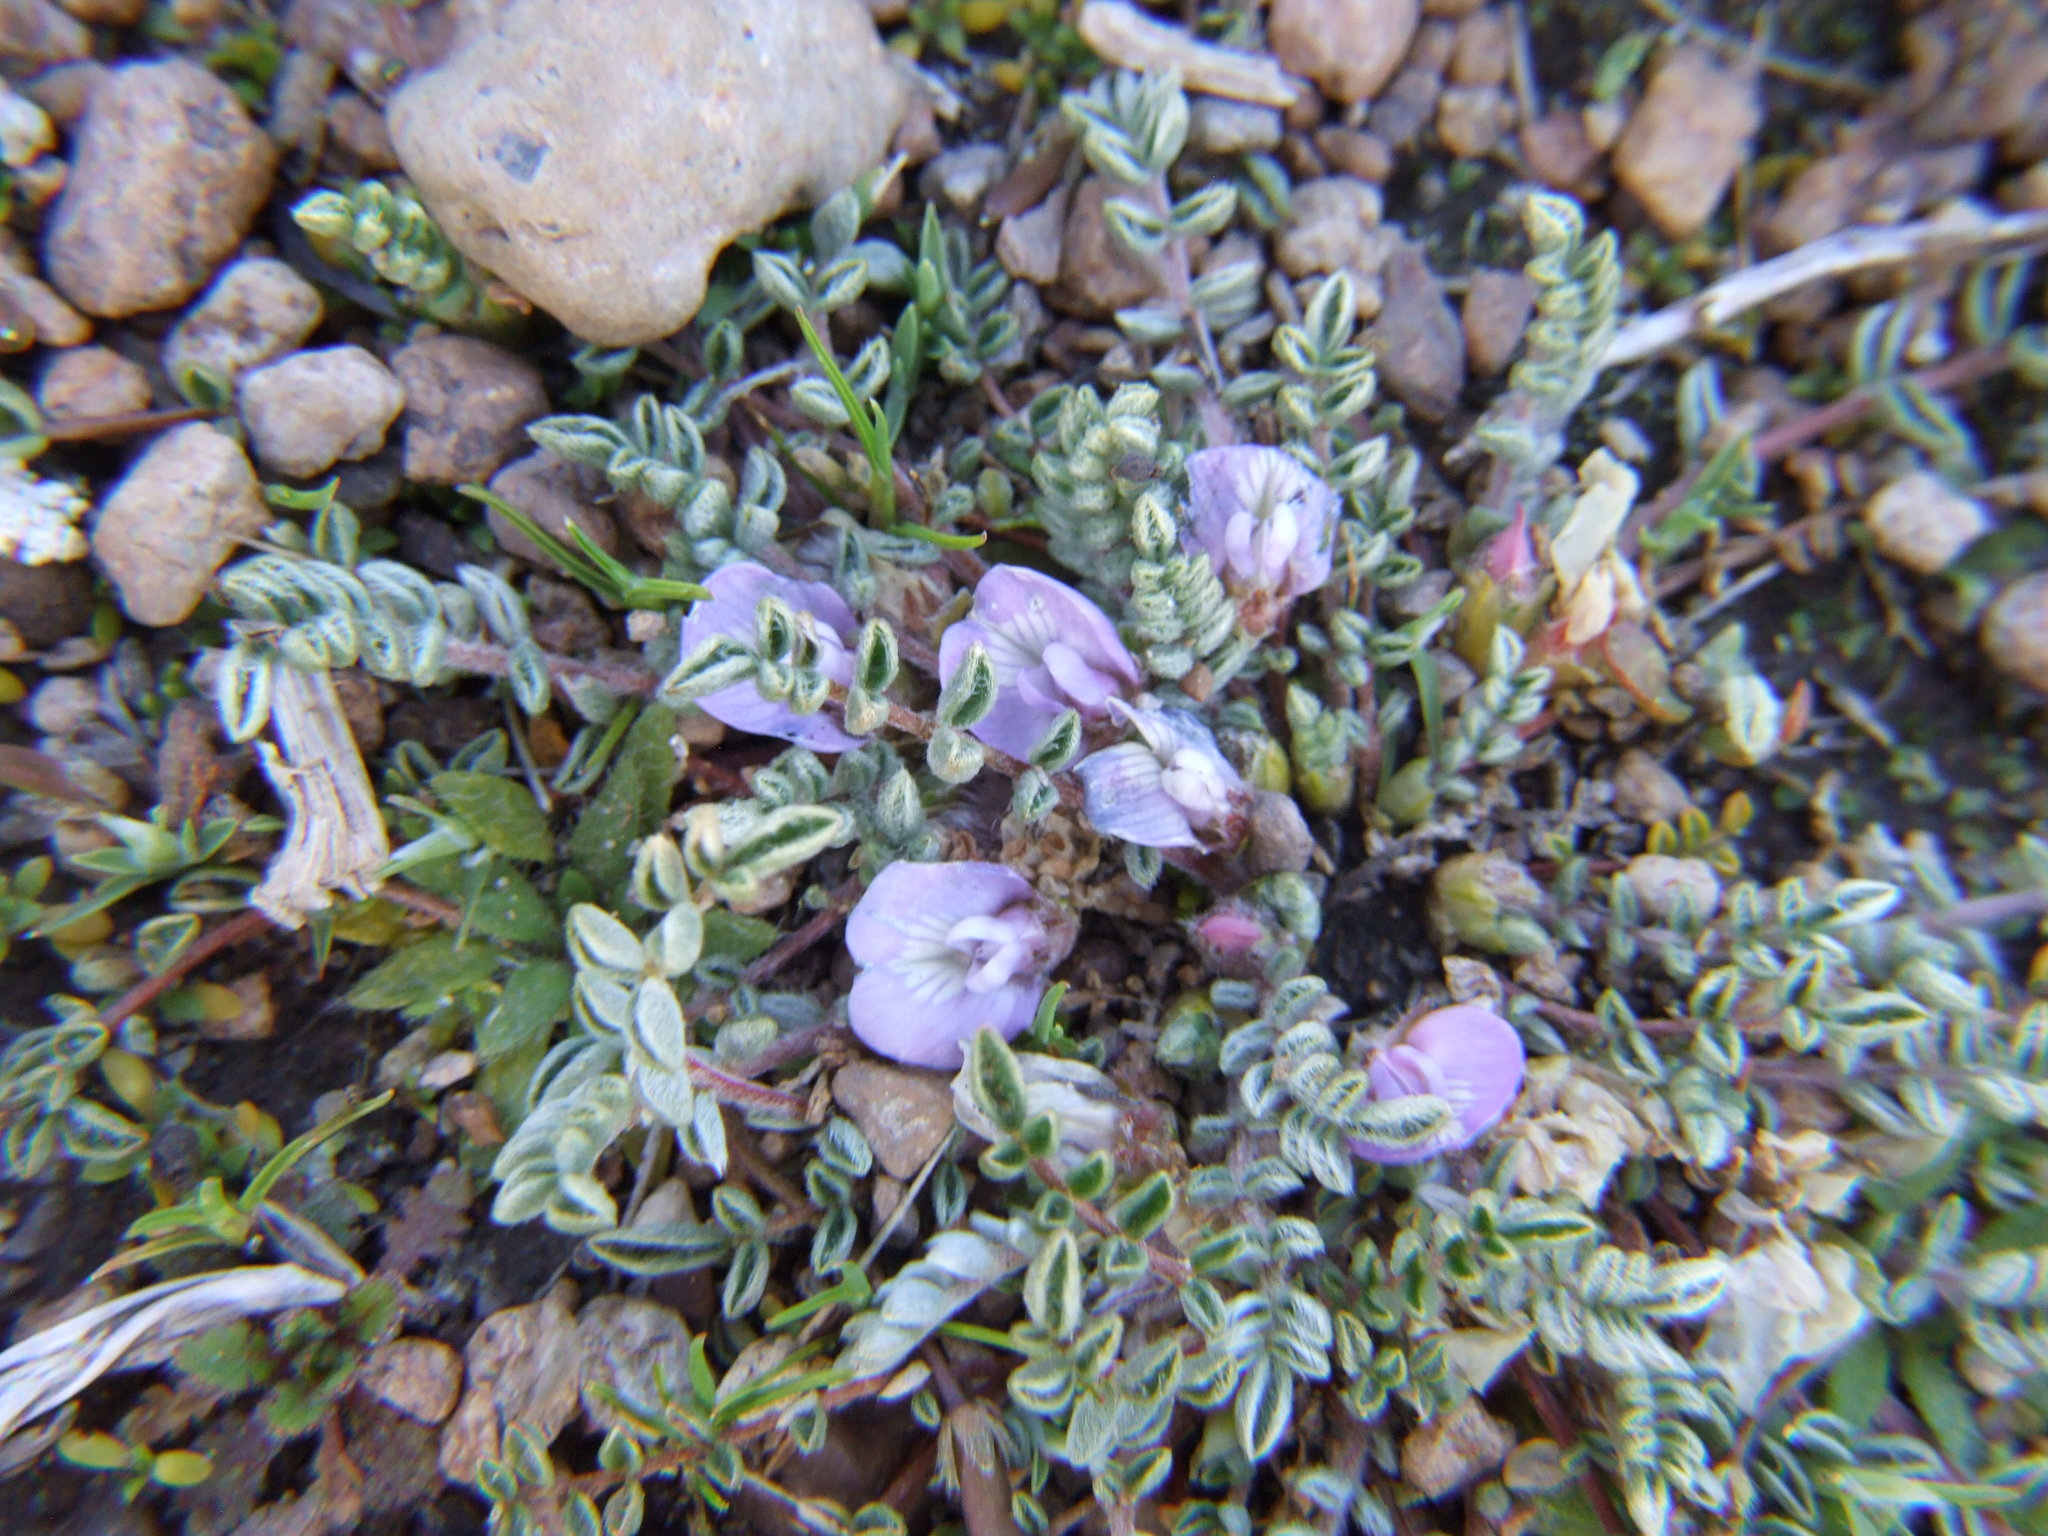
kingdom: Plantae
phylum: Tracheophyta
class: Magnoliopsida
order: Fabales
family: Fabaceae
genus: Astragalus
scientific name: Astragalus peruvianus
